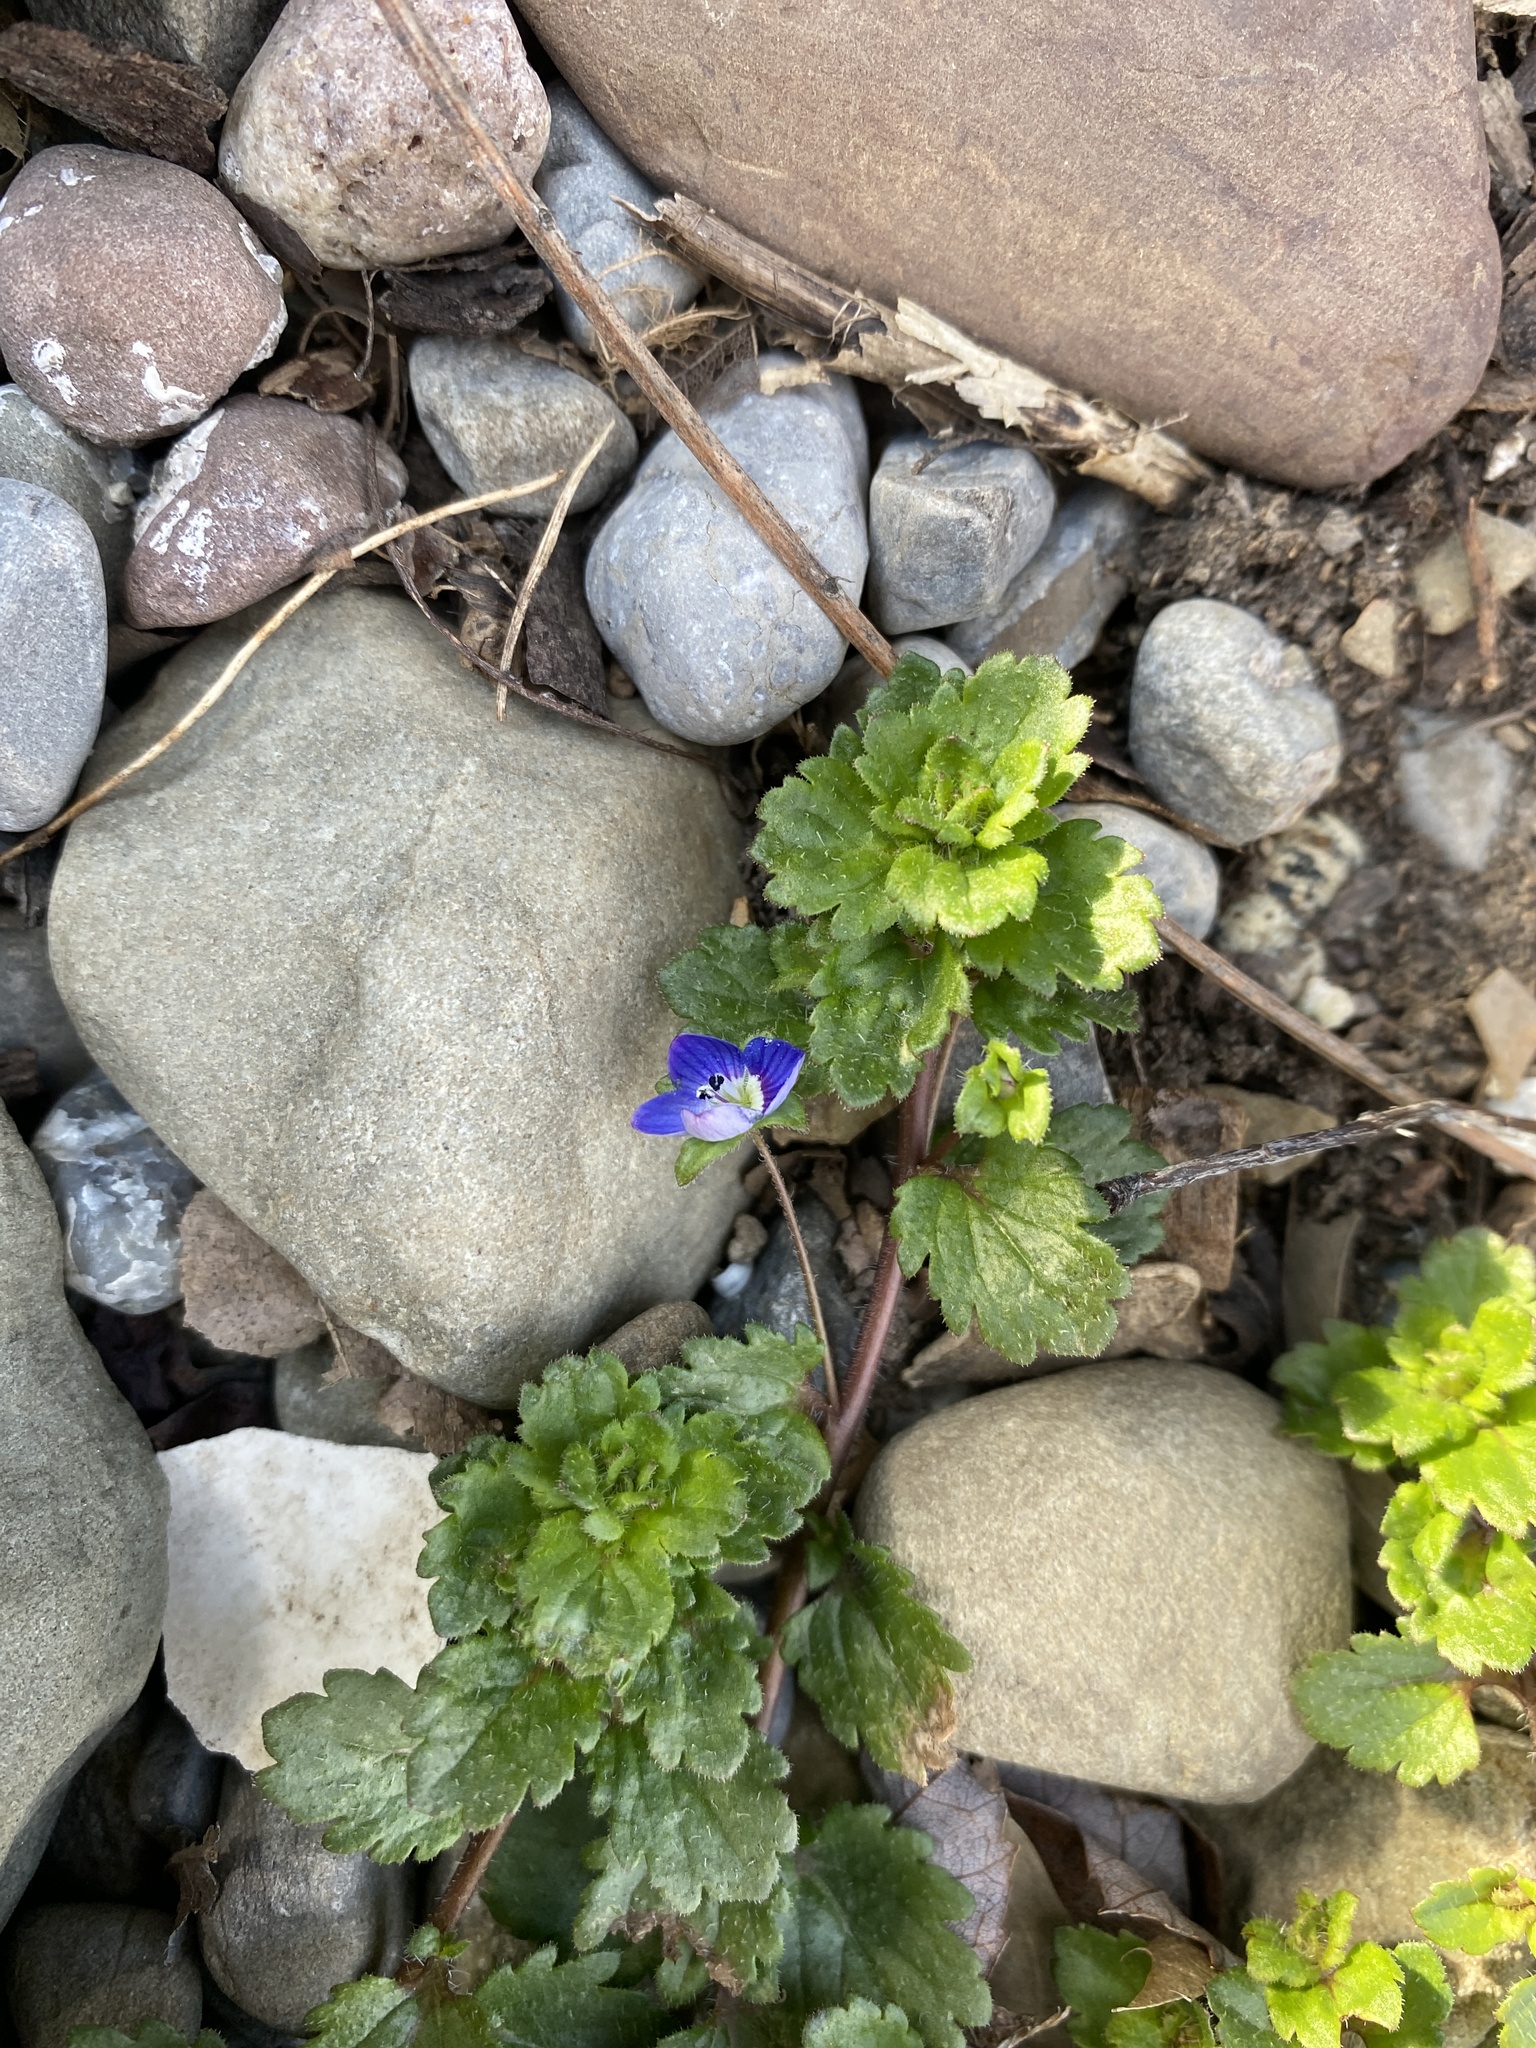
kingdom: Plantae
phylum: Tracheophyta
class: Magnoliopsida
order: Lamiales
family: Plantaginaceae
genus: Veronica
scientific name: Veronica persica
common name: Common field-speedwell
